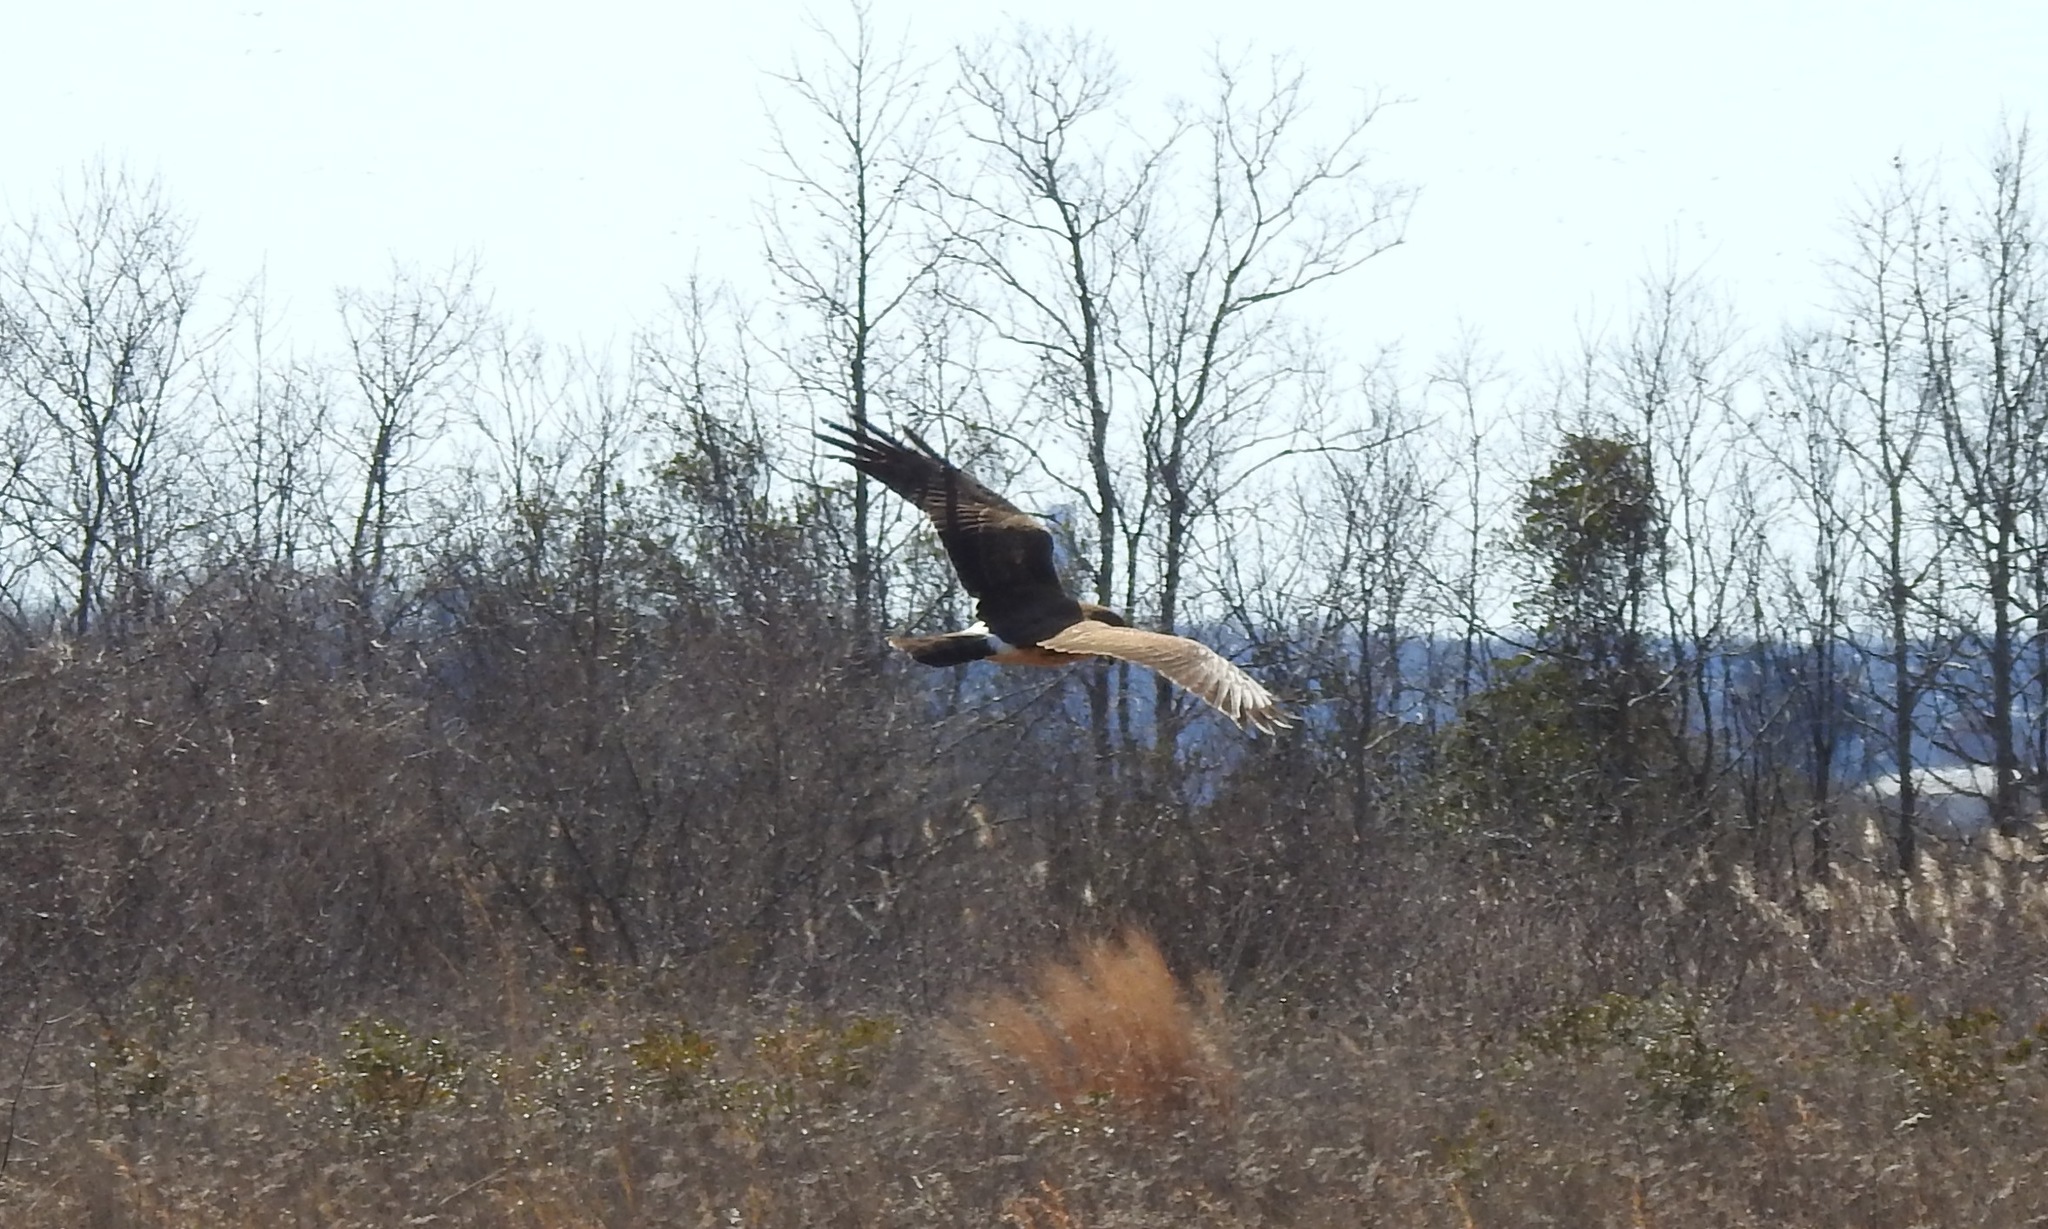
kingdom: Animalia
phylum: Chordata
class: Aves
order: Accipitriformes
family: Accipitridae
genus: Circus
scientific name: Circus cyaneus
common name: Hen harrier
